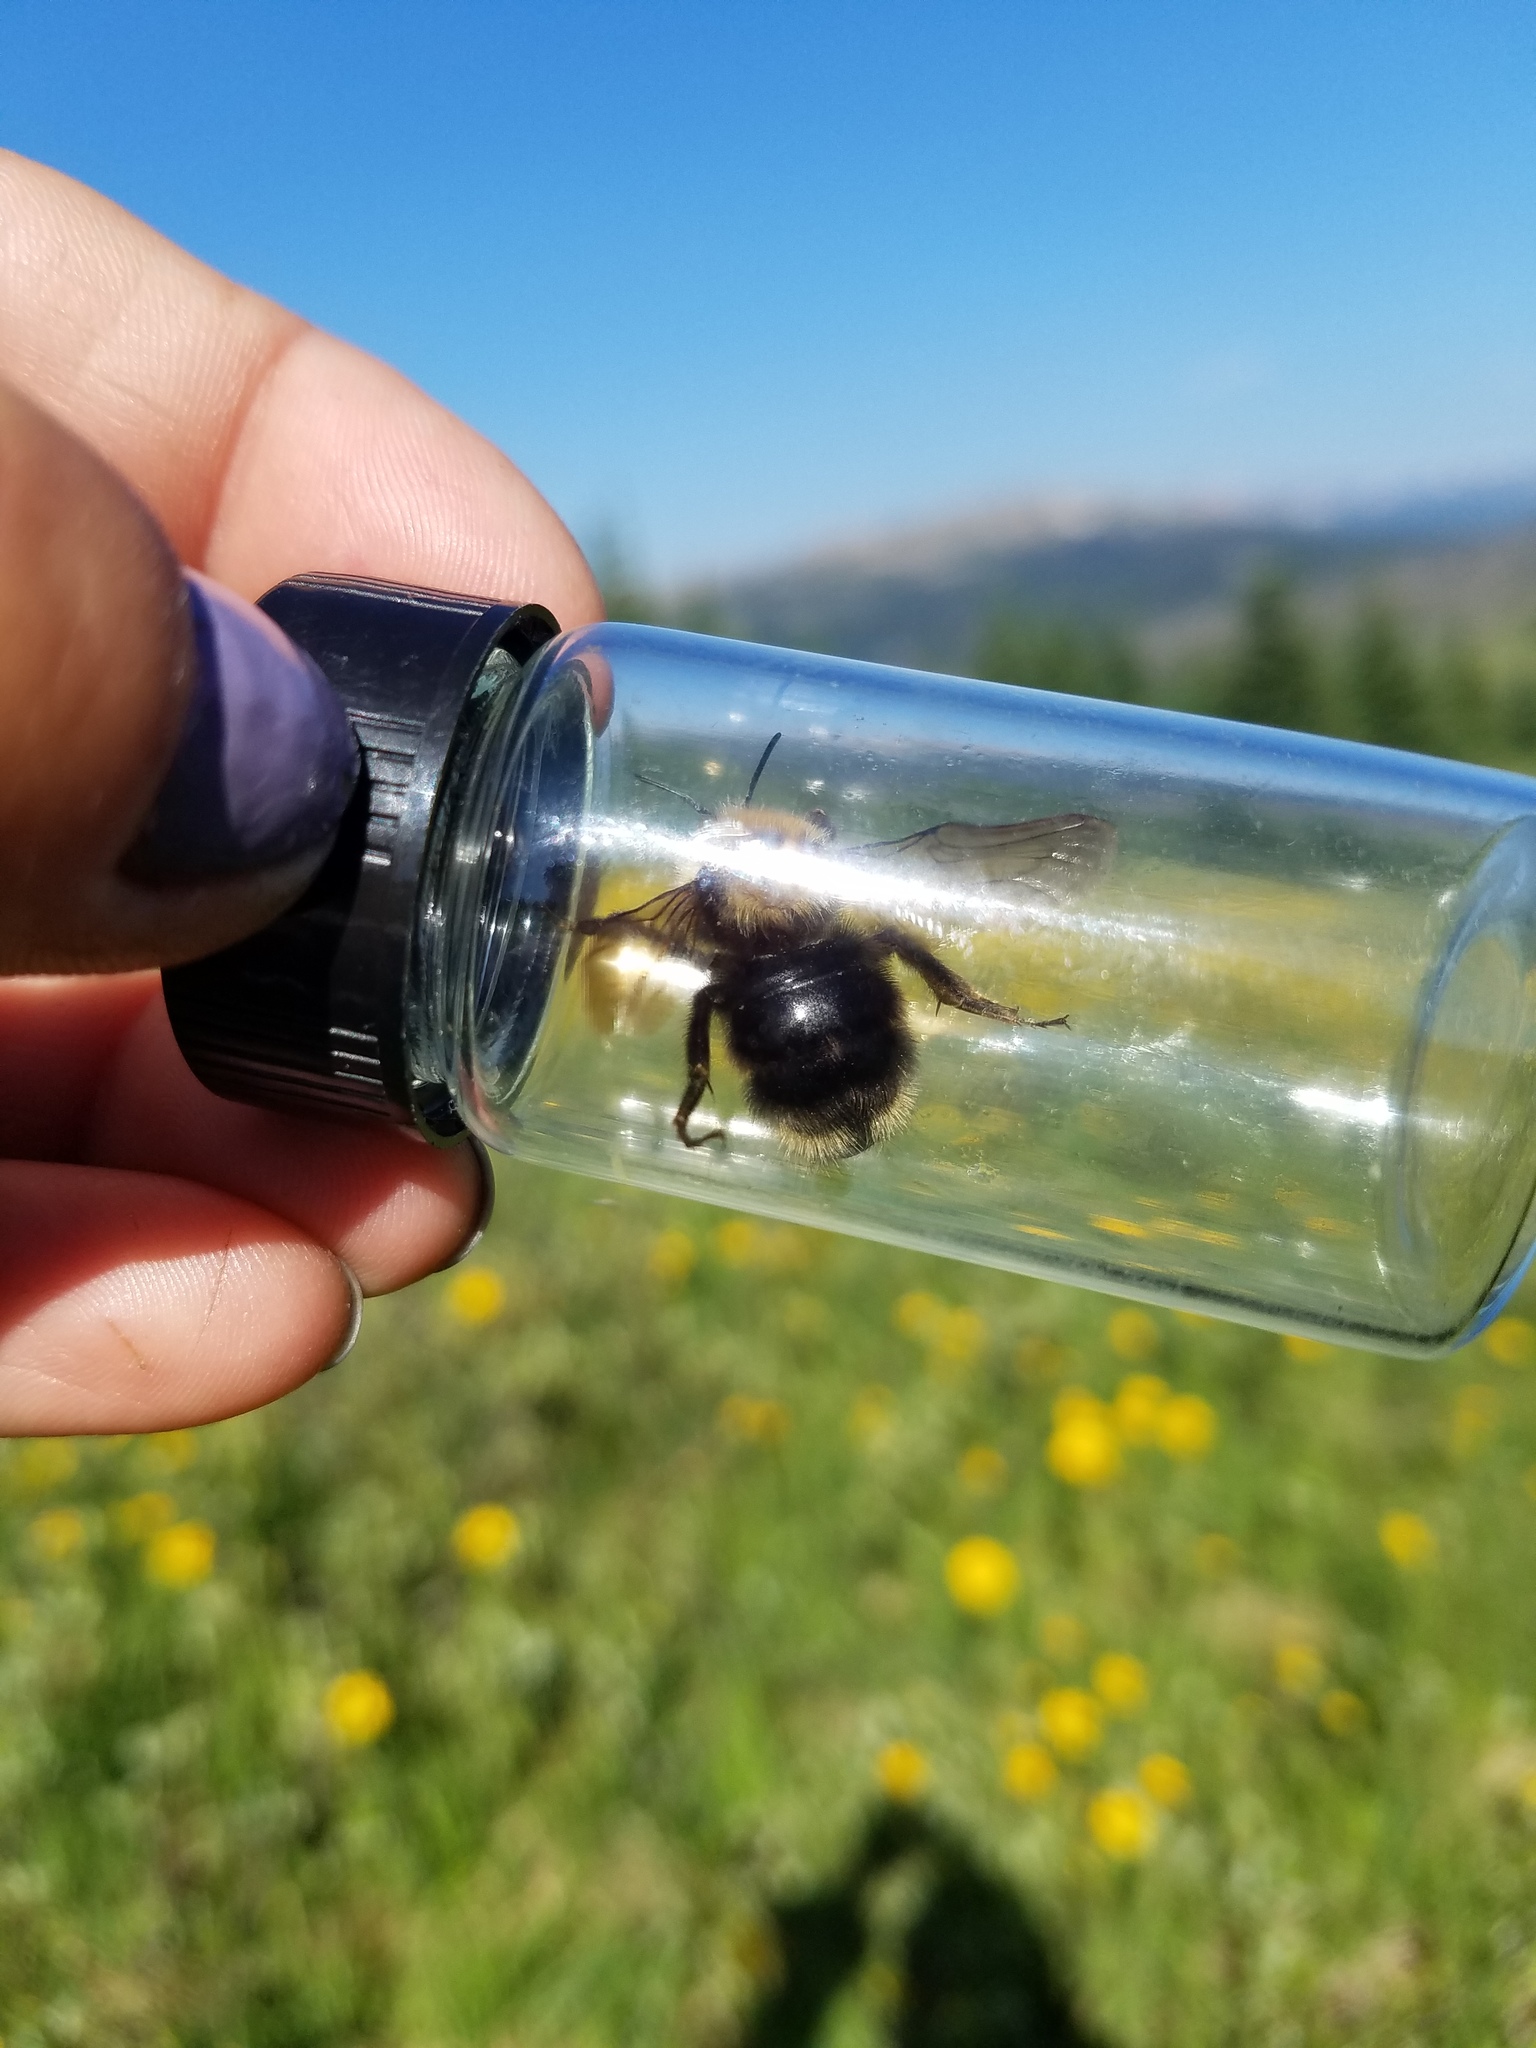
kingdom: Animalia
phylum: Arthropoda
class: Insecta
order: Hymenoptera
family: Apidae
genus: Bombus
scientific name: Bombus flavidus
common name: Fernald cuckoo bumble bee
